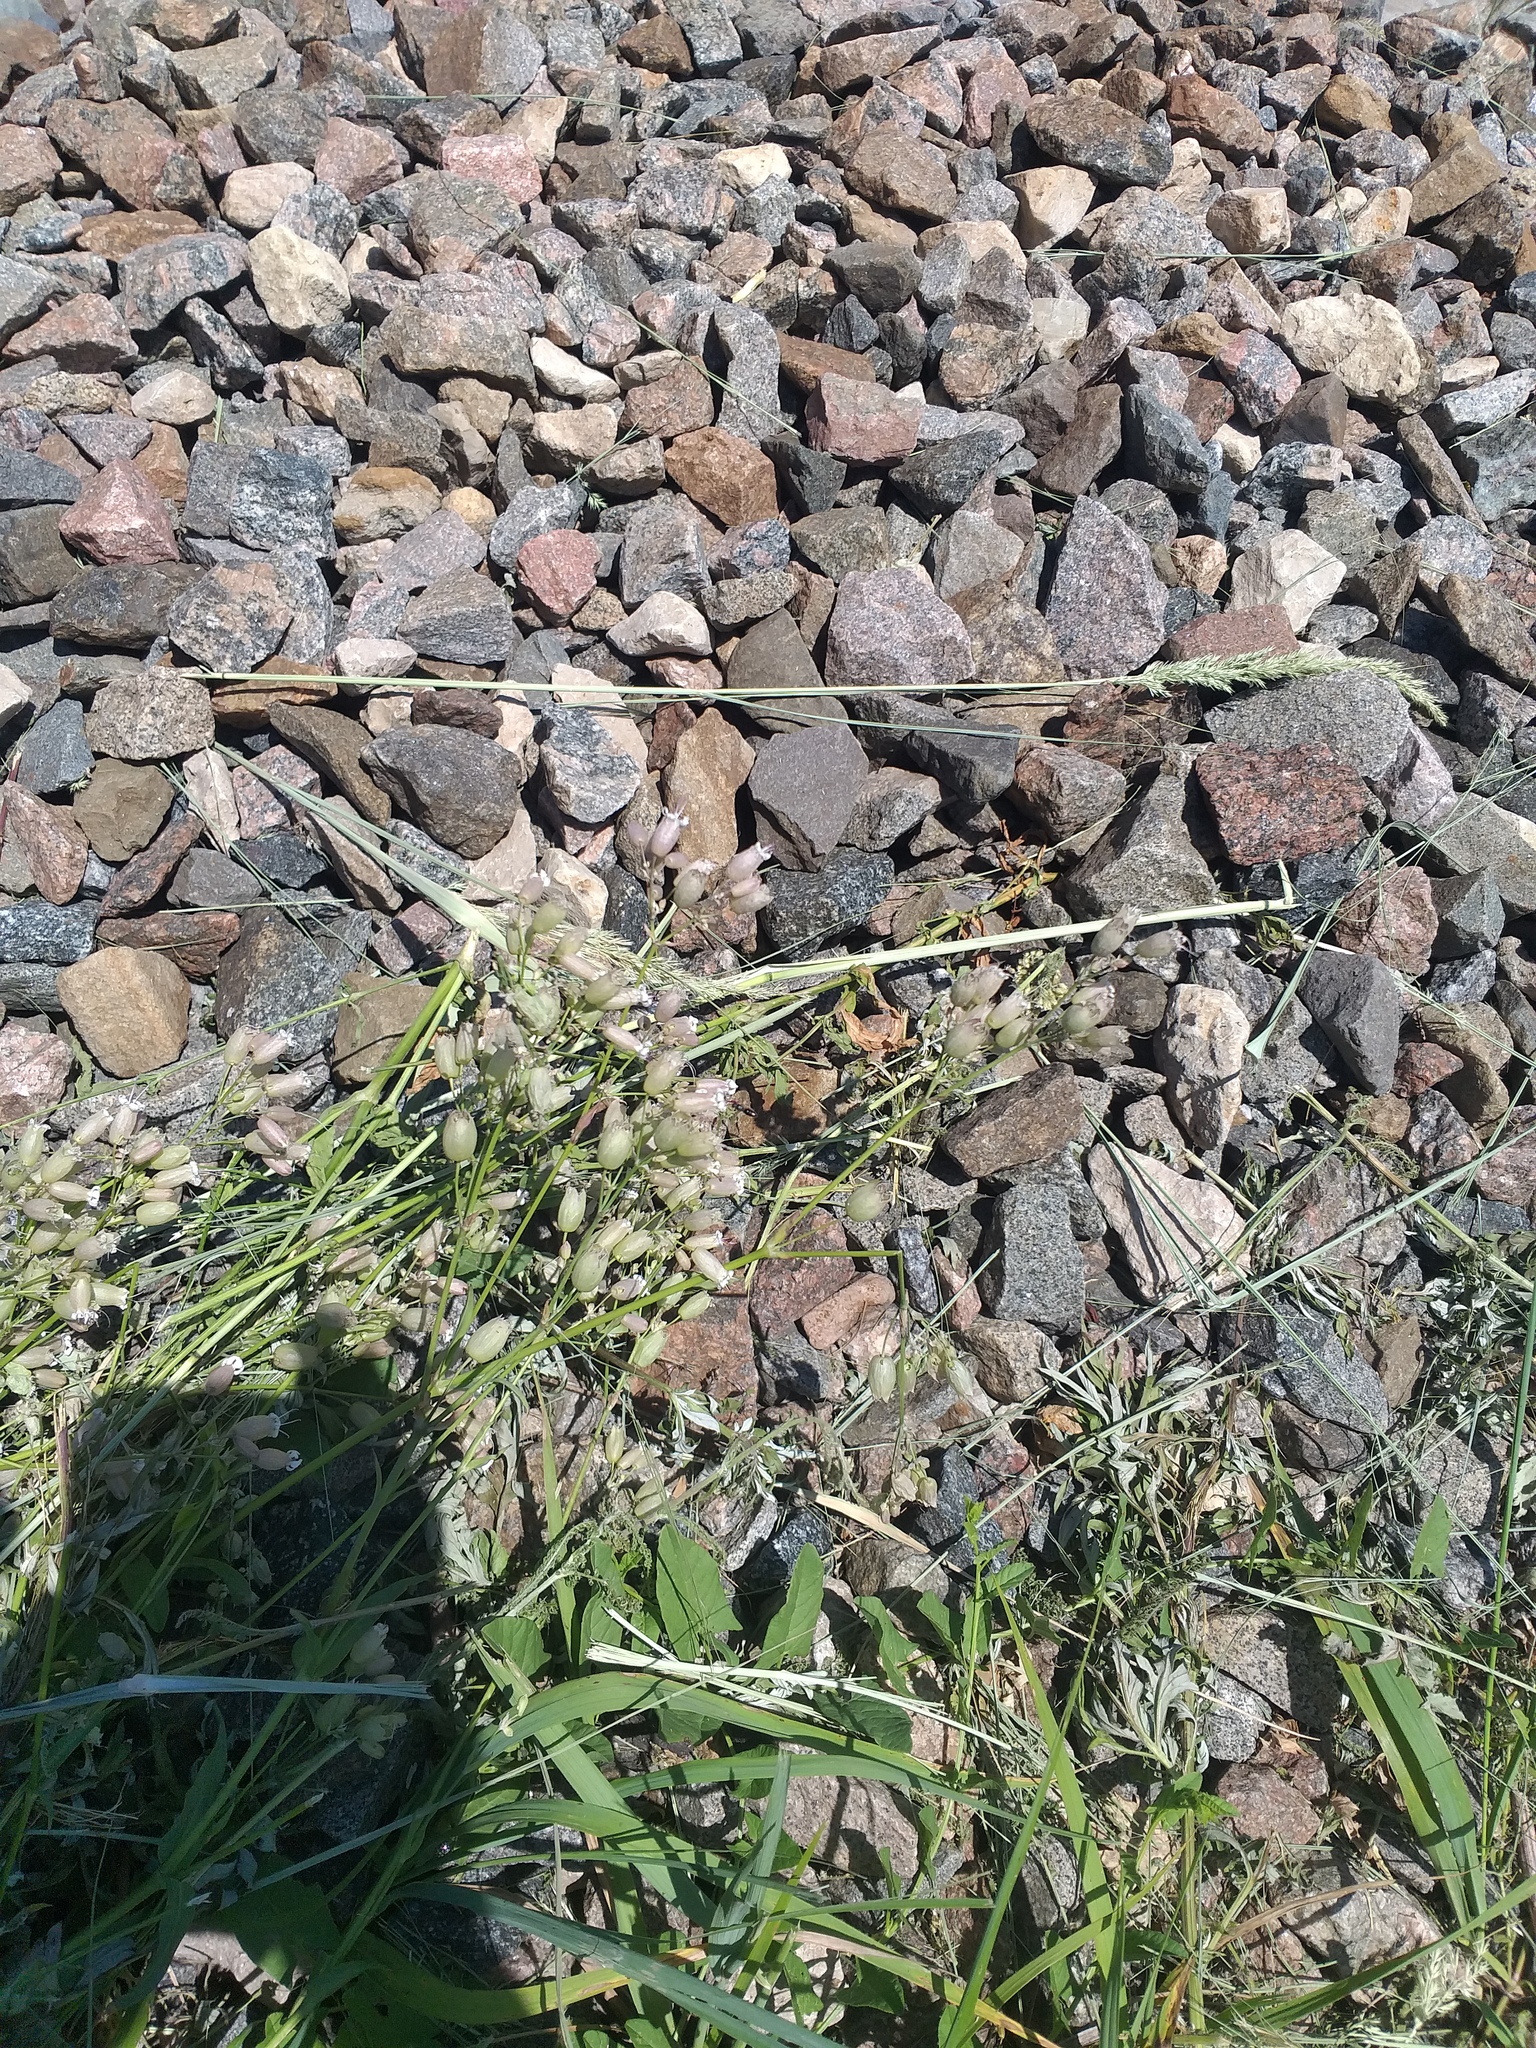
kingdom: Plantae
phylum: Tracheophyta
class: Magnoliopsida
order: Caryophyllales
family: Caryophyllaceae
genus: Silene
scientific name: Silene vulgaris
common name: Bladder campion
